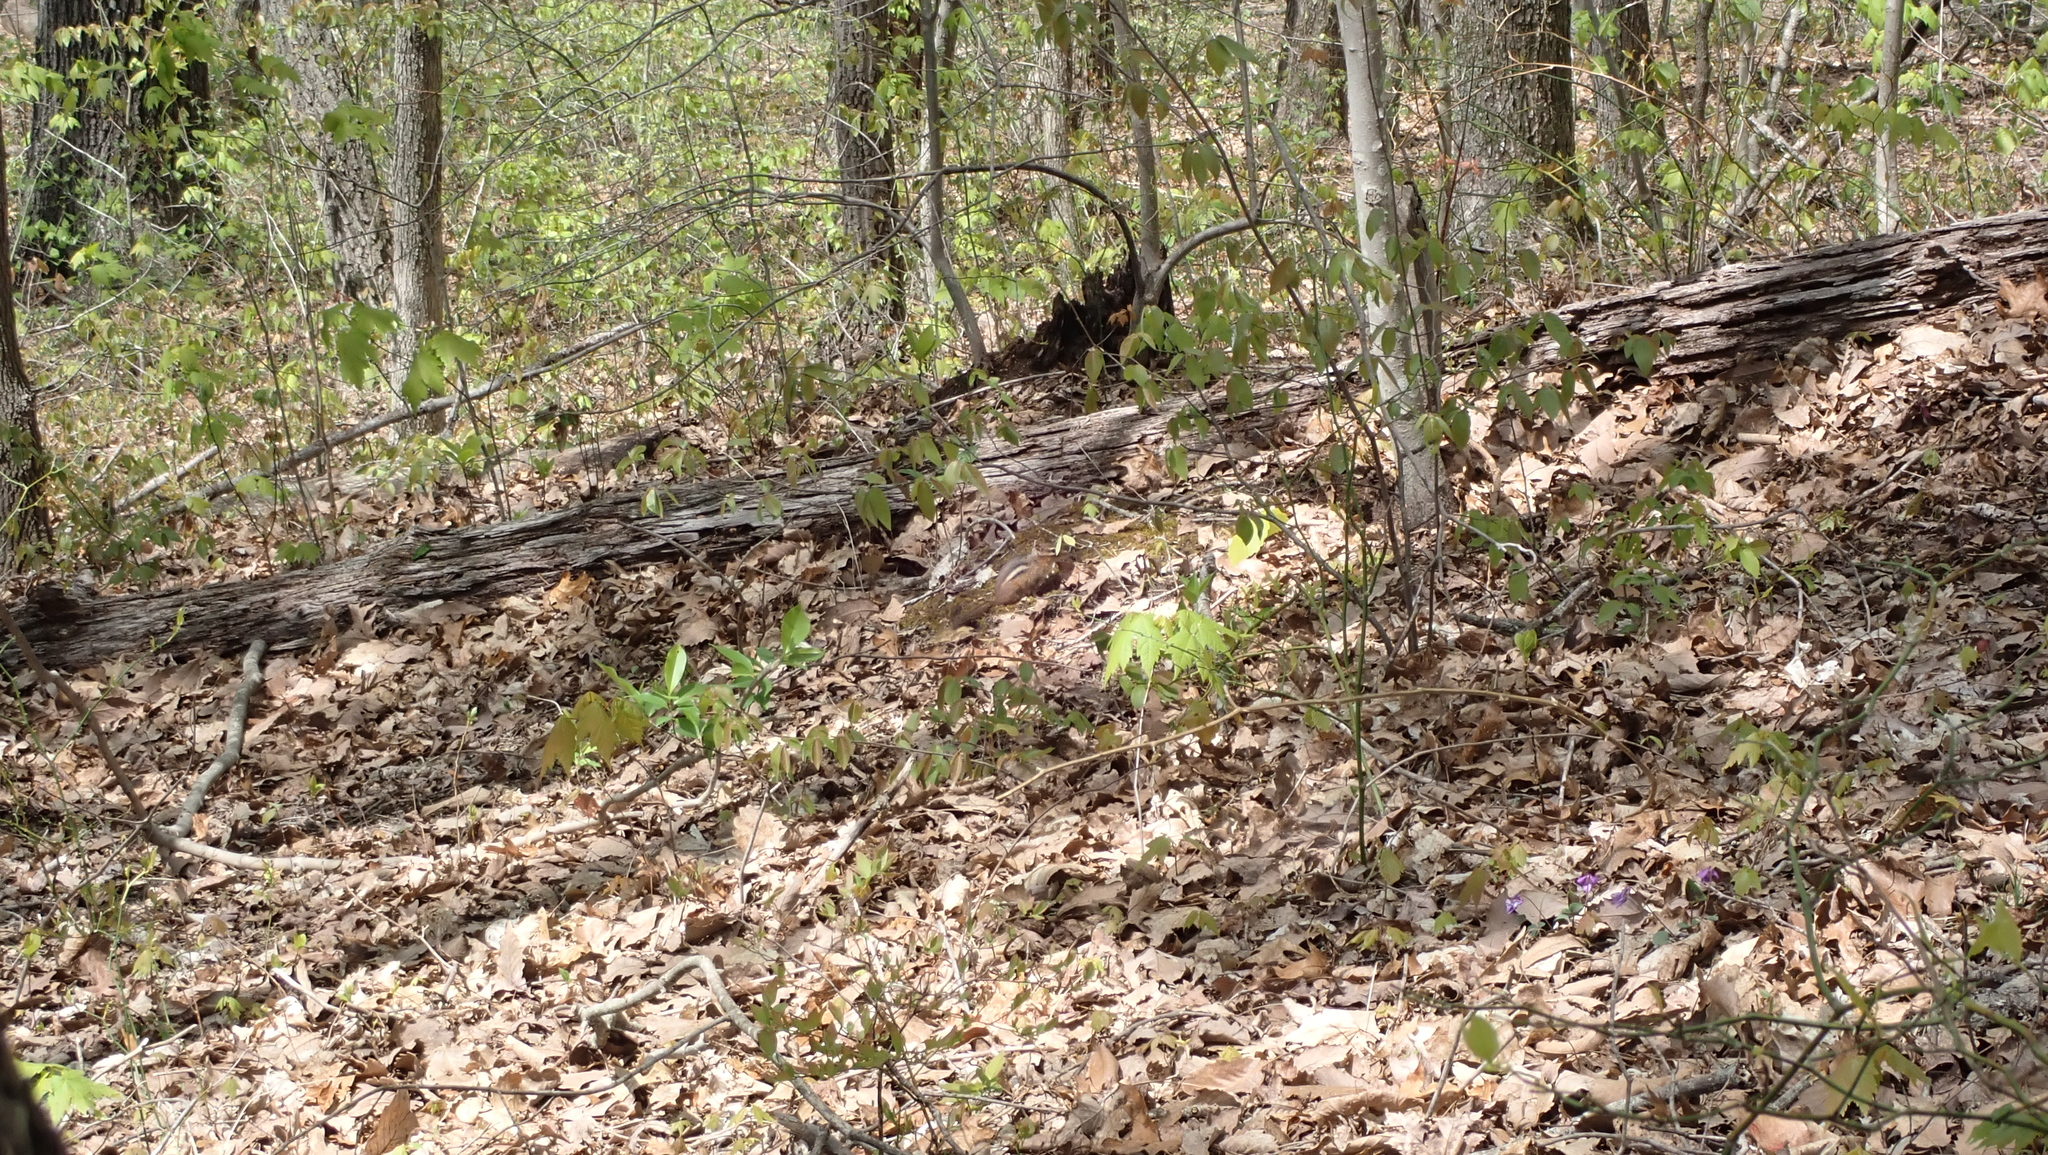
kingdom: Animalia
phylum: Chordata
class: Mammalia
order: Rodentia
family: Sciuridae
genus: Tamias
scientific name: Tamias striatus
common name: Eastern chipmunk
